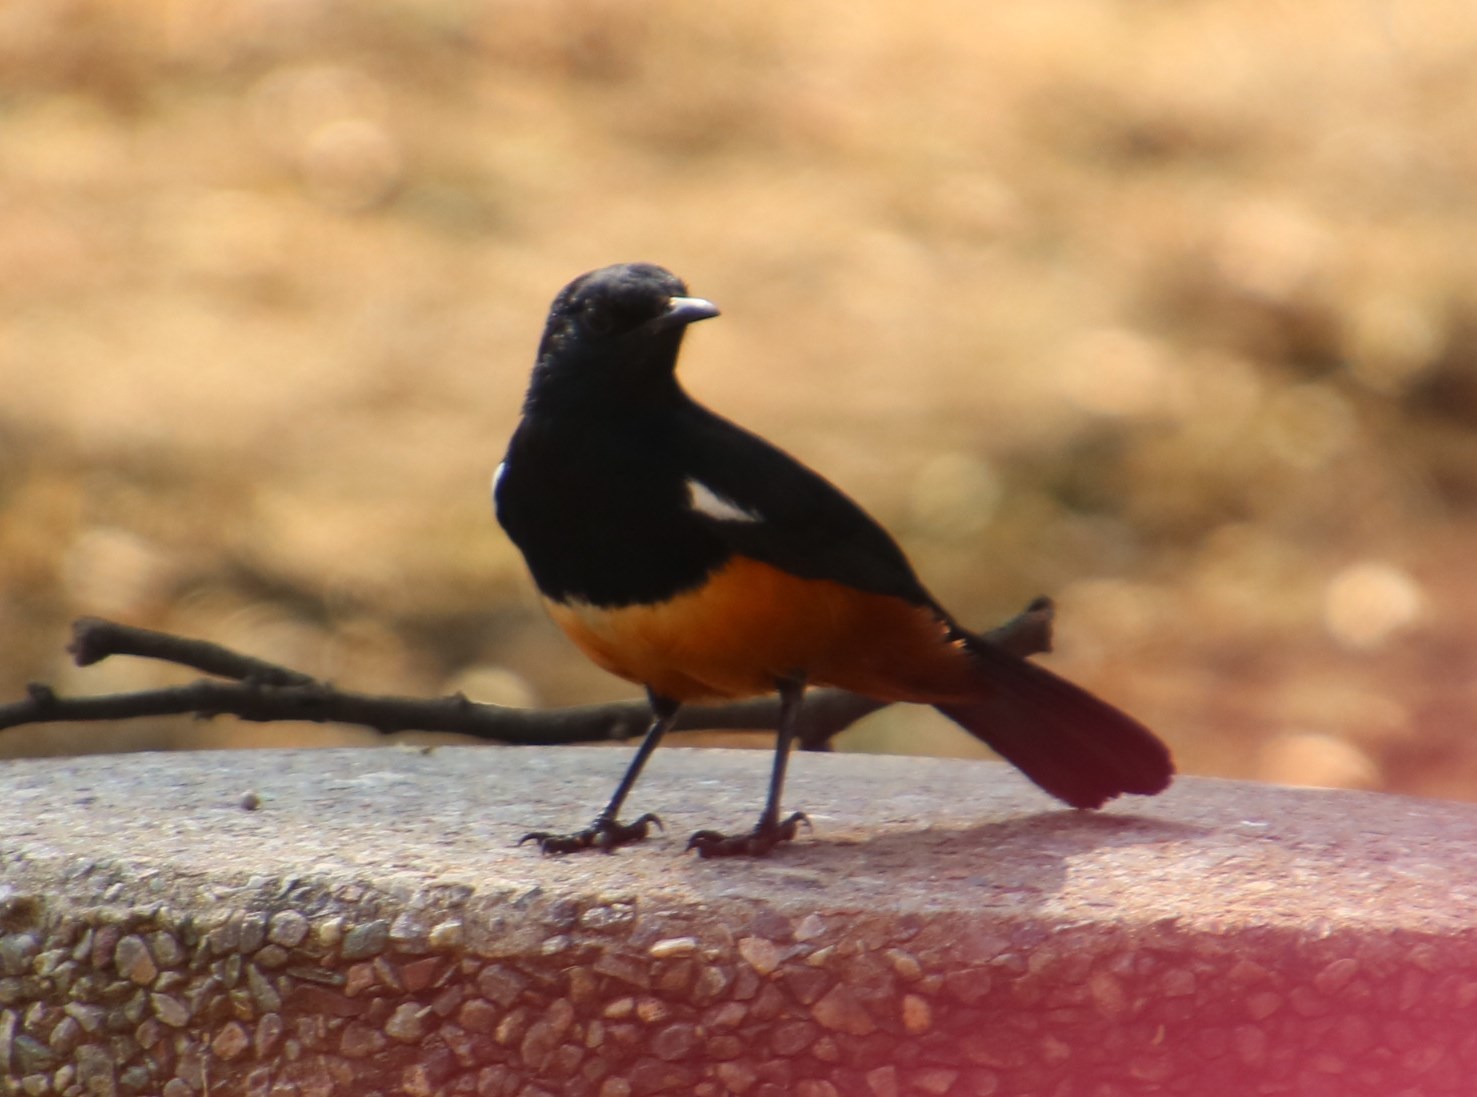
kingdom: Animalia
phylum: Chordata
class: Aves
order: Passeriformes
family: Muscicapidae
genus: Thamnolaea
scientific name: Thamnolaea cinnamomeiventris
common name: Mocking cliff chat
